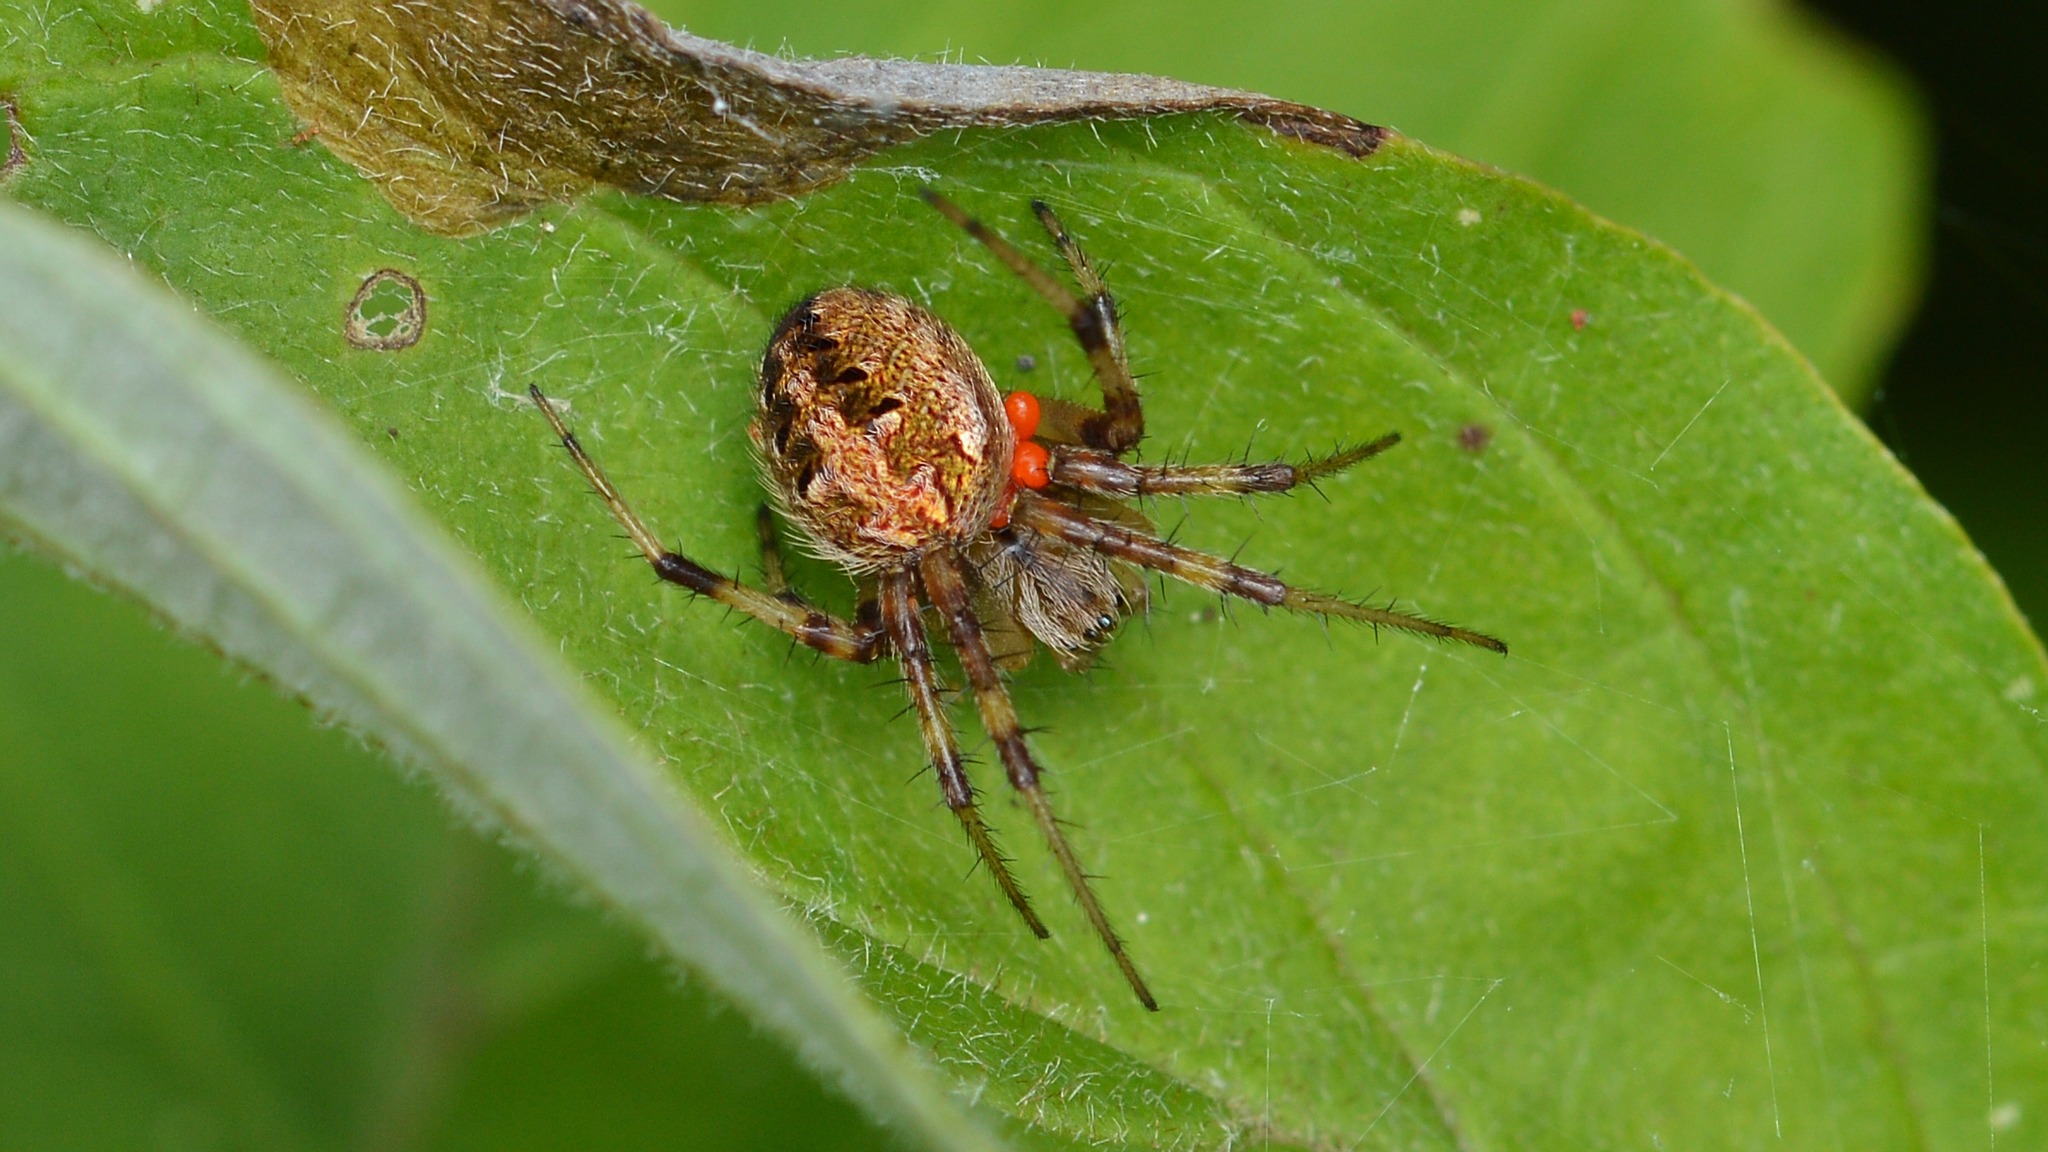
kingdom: Animalia
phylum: Arthropoda
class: Arachnida
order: Araneae
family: Araneidae
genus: Neoscona
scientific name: Neoscona arabesca
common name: Orb weavers
